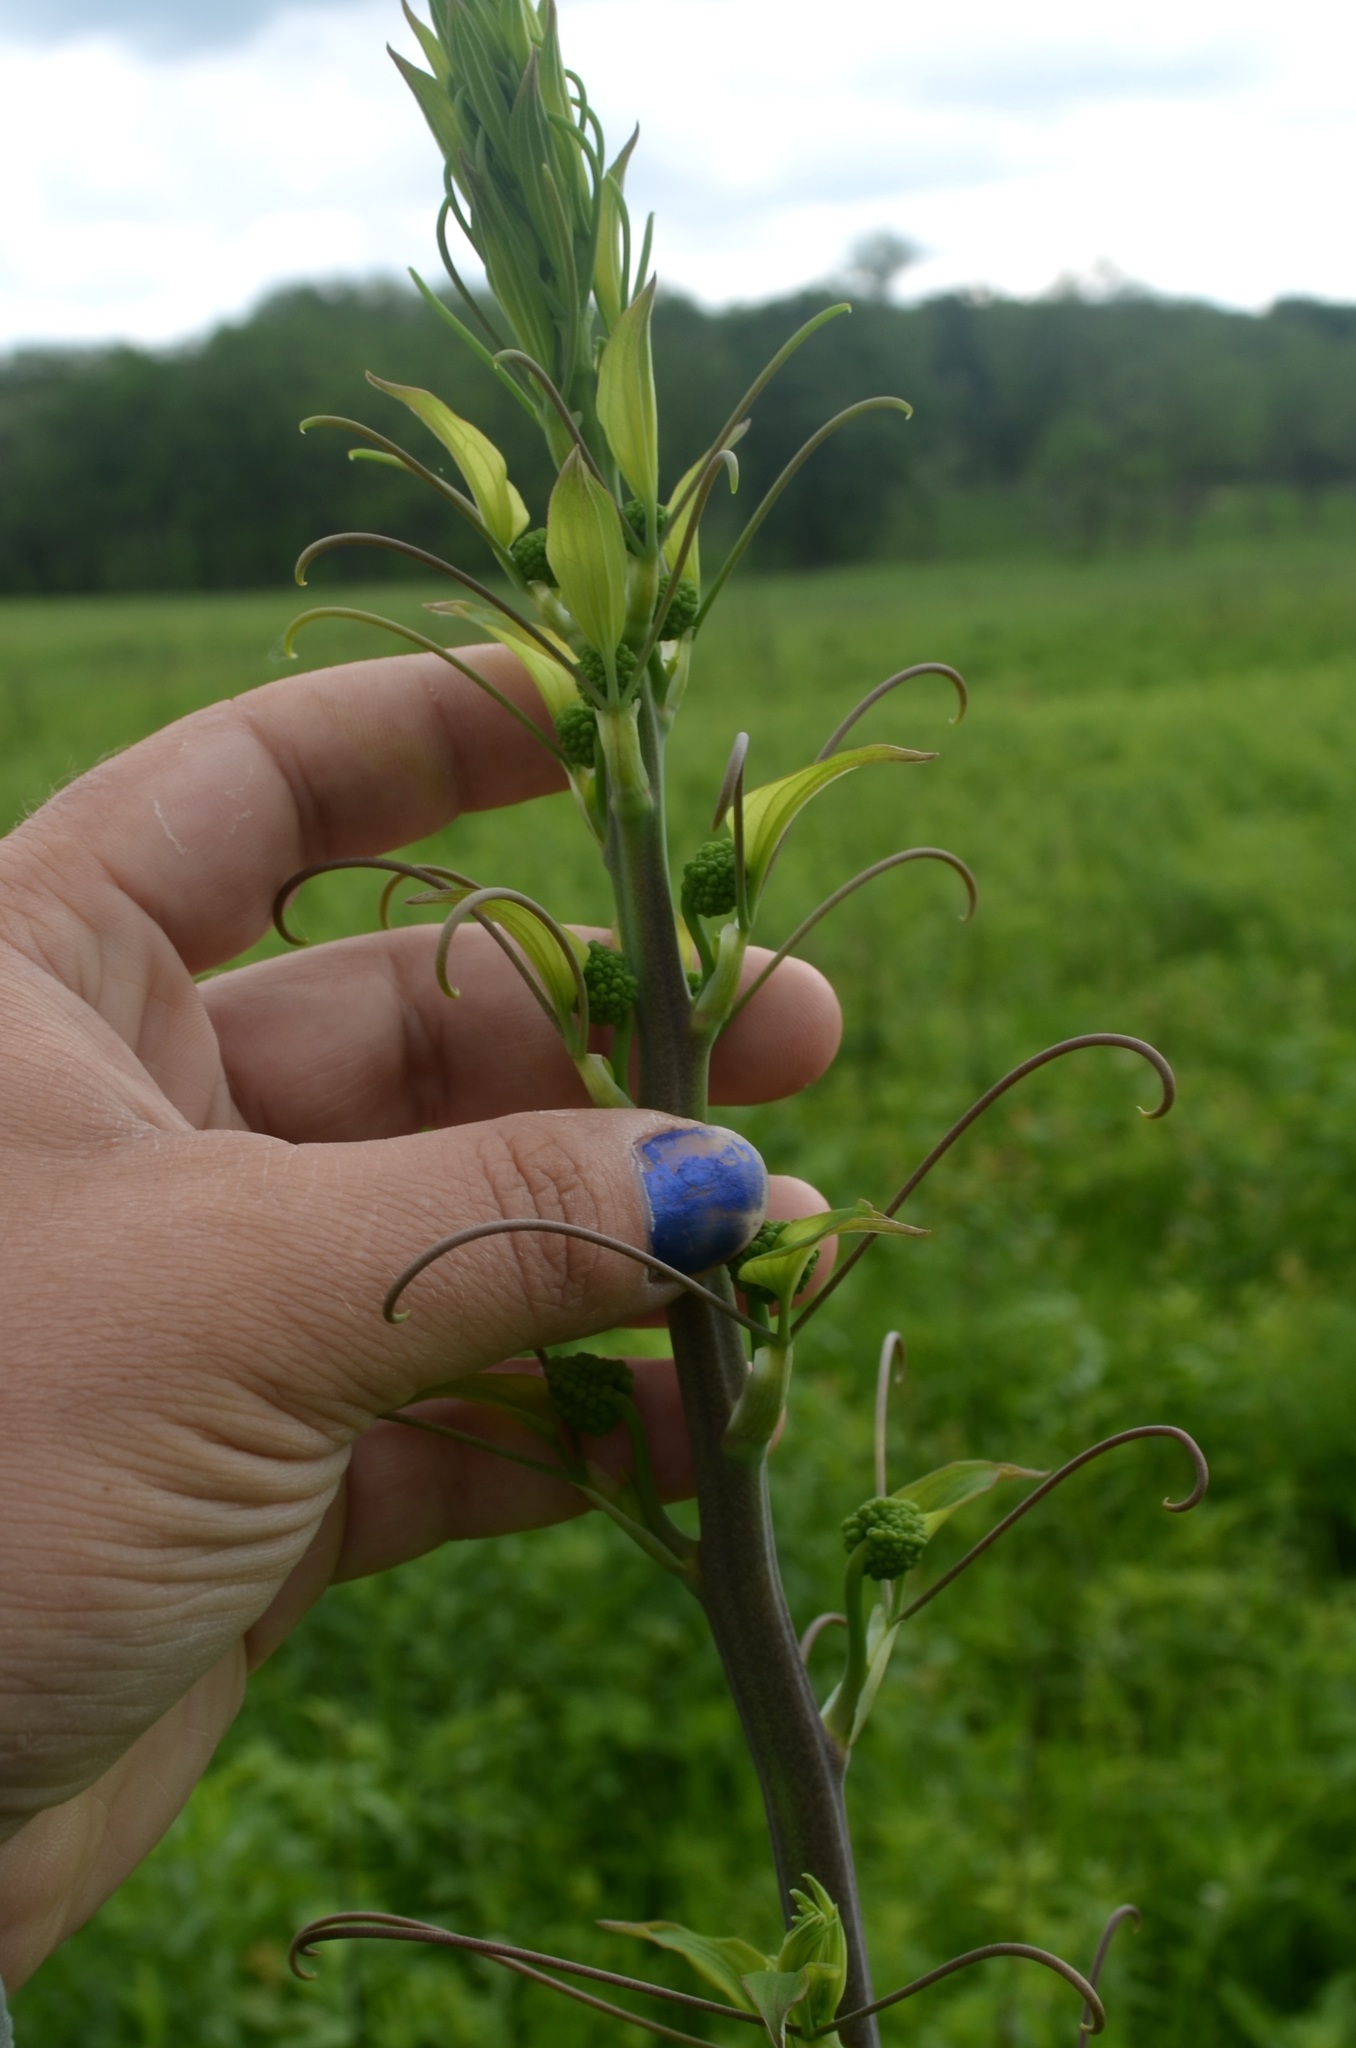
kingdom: Plantae
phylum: Tracheophyta
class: Liliopsida
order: Liliales
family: Smilacaceae
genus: Smilax
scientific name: Smilax lasioneura
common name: Blue ridge carrionflower
